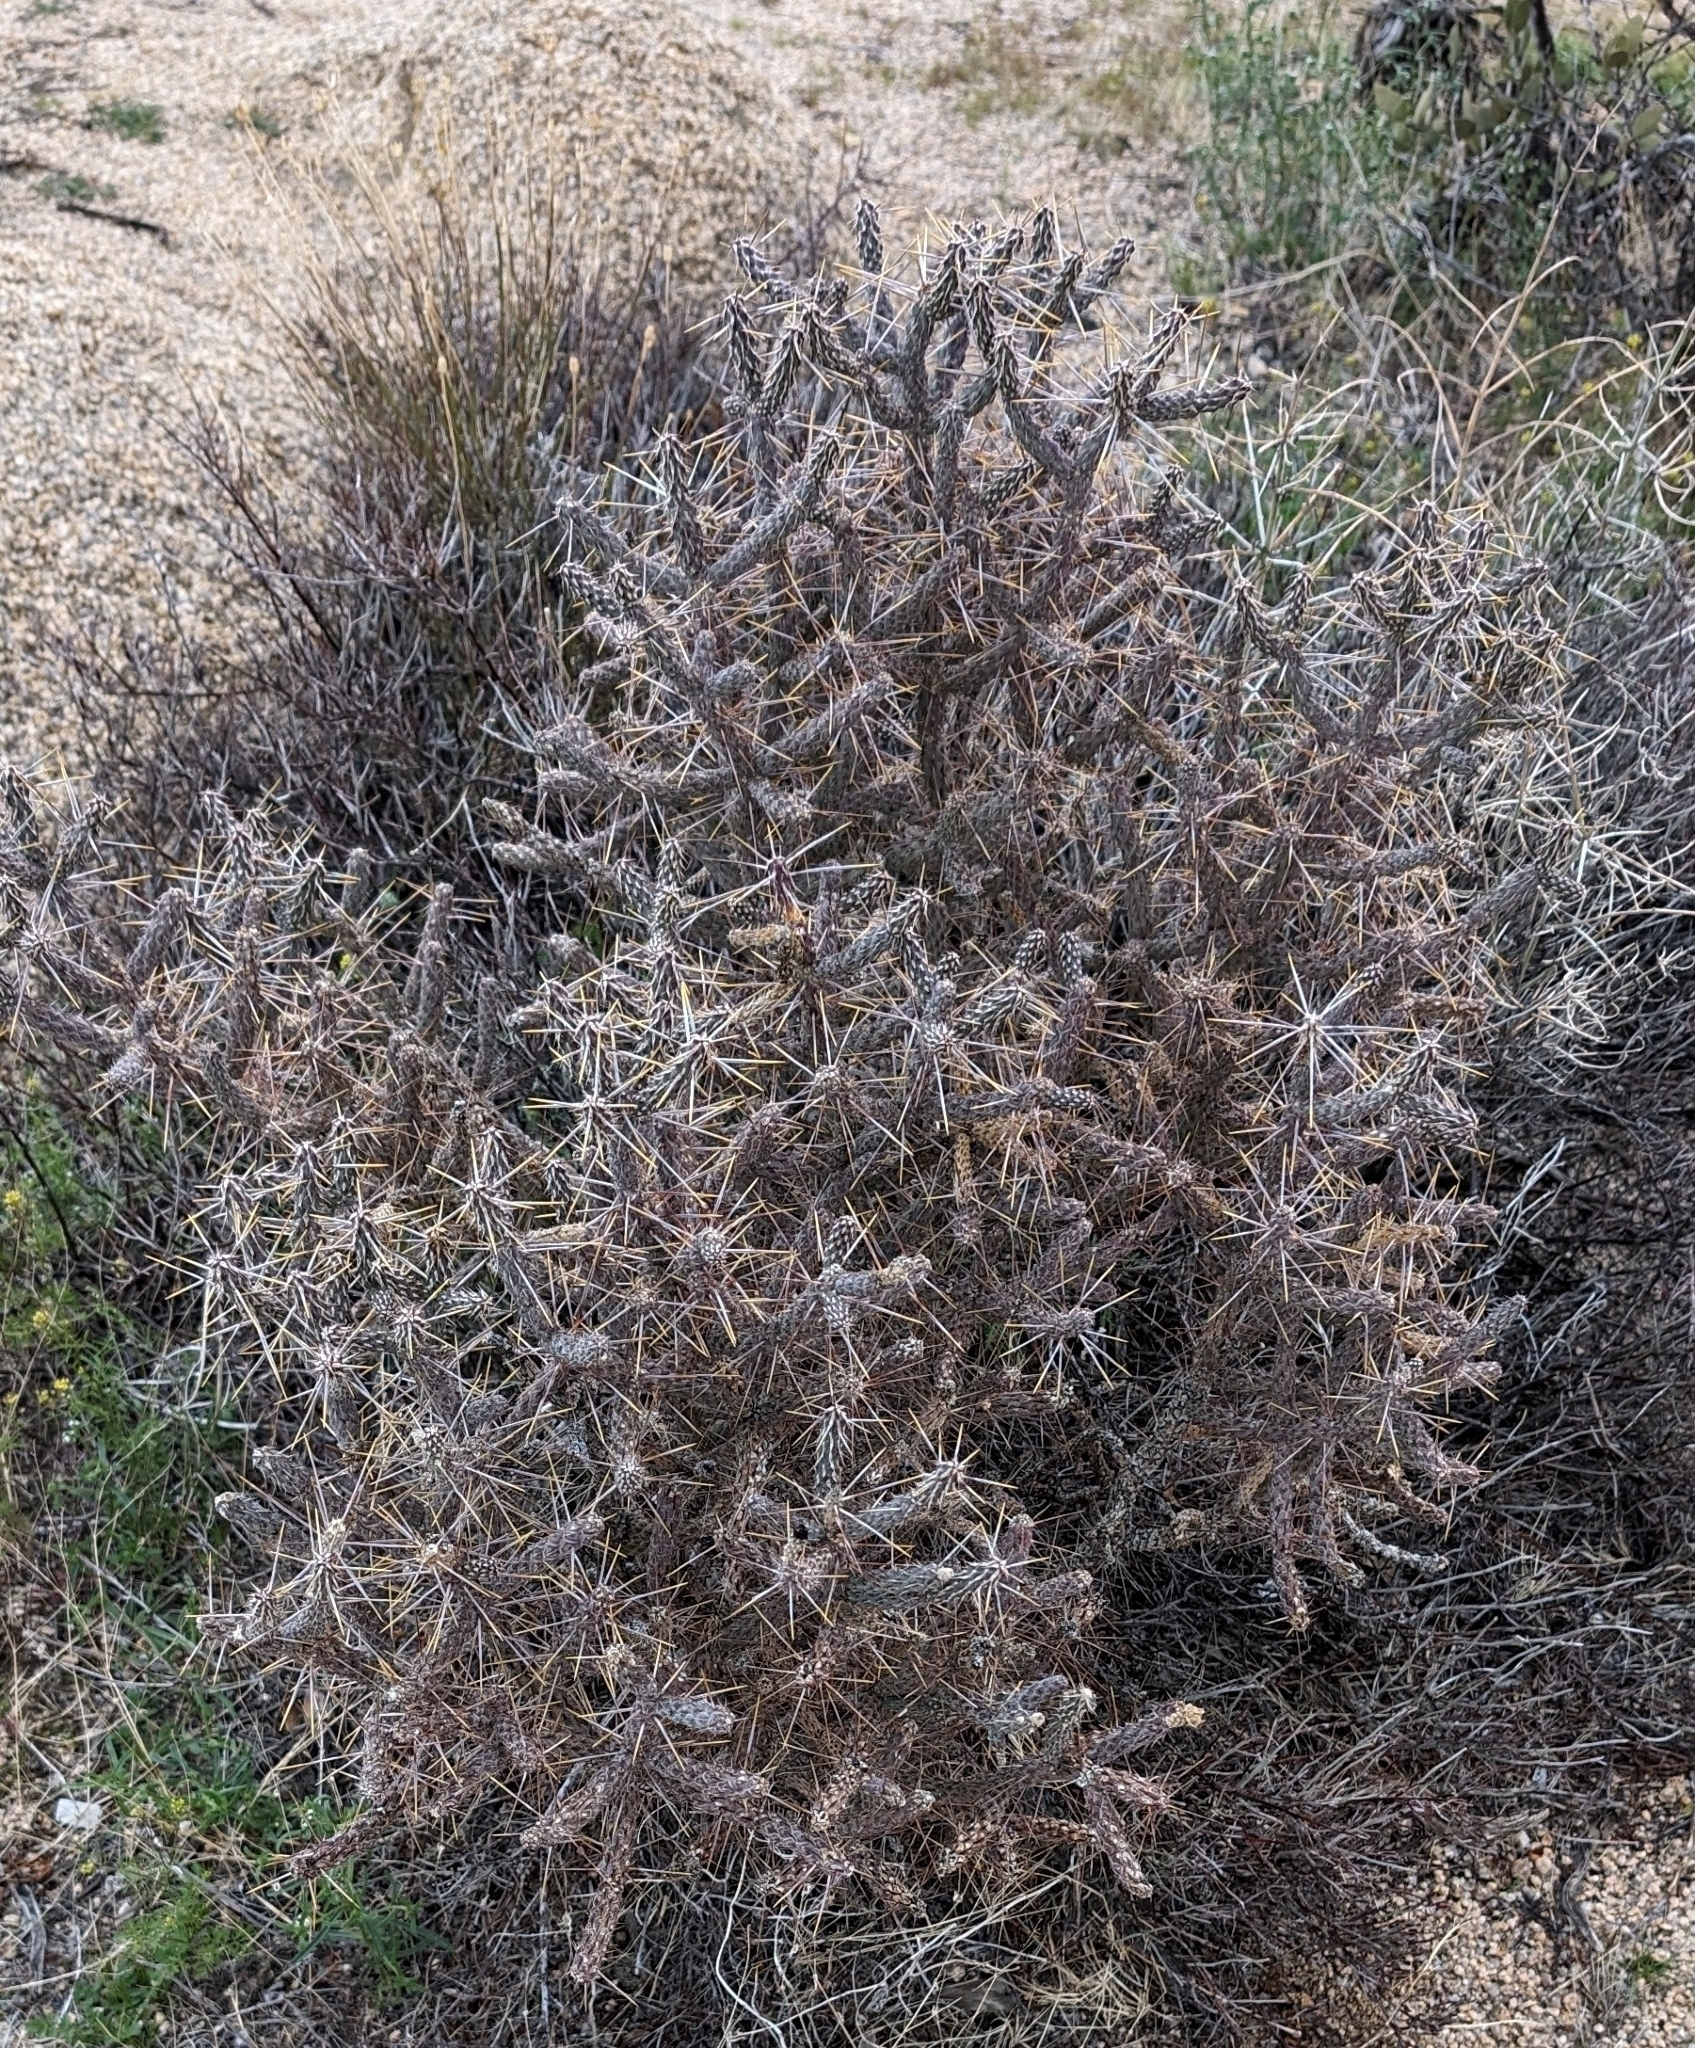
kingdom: Plantae
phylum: Tracheophyta
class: Magnoliopsida
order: Caryophyllales
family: Cactaceae
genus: Cylindropuntia
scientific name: Cylindropuntia ramosissima
